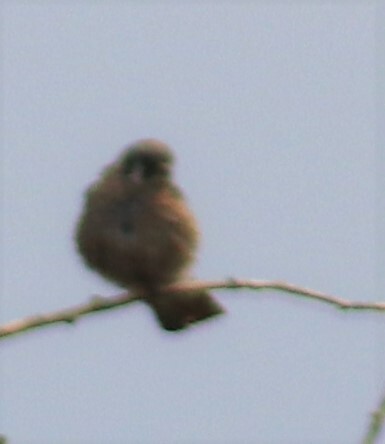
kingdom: Animalia
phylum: Chordata
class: Aves
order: Falconiformes
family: Falconidae
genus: Falco
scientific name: Falco sparverius
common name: American kestrel
